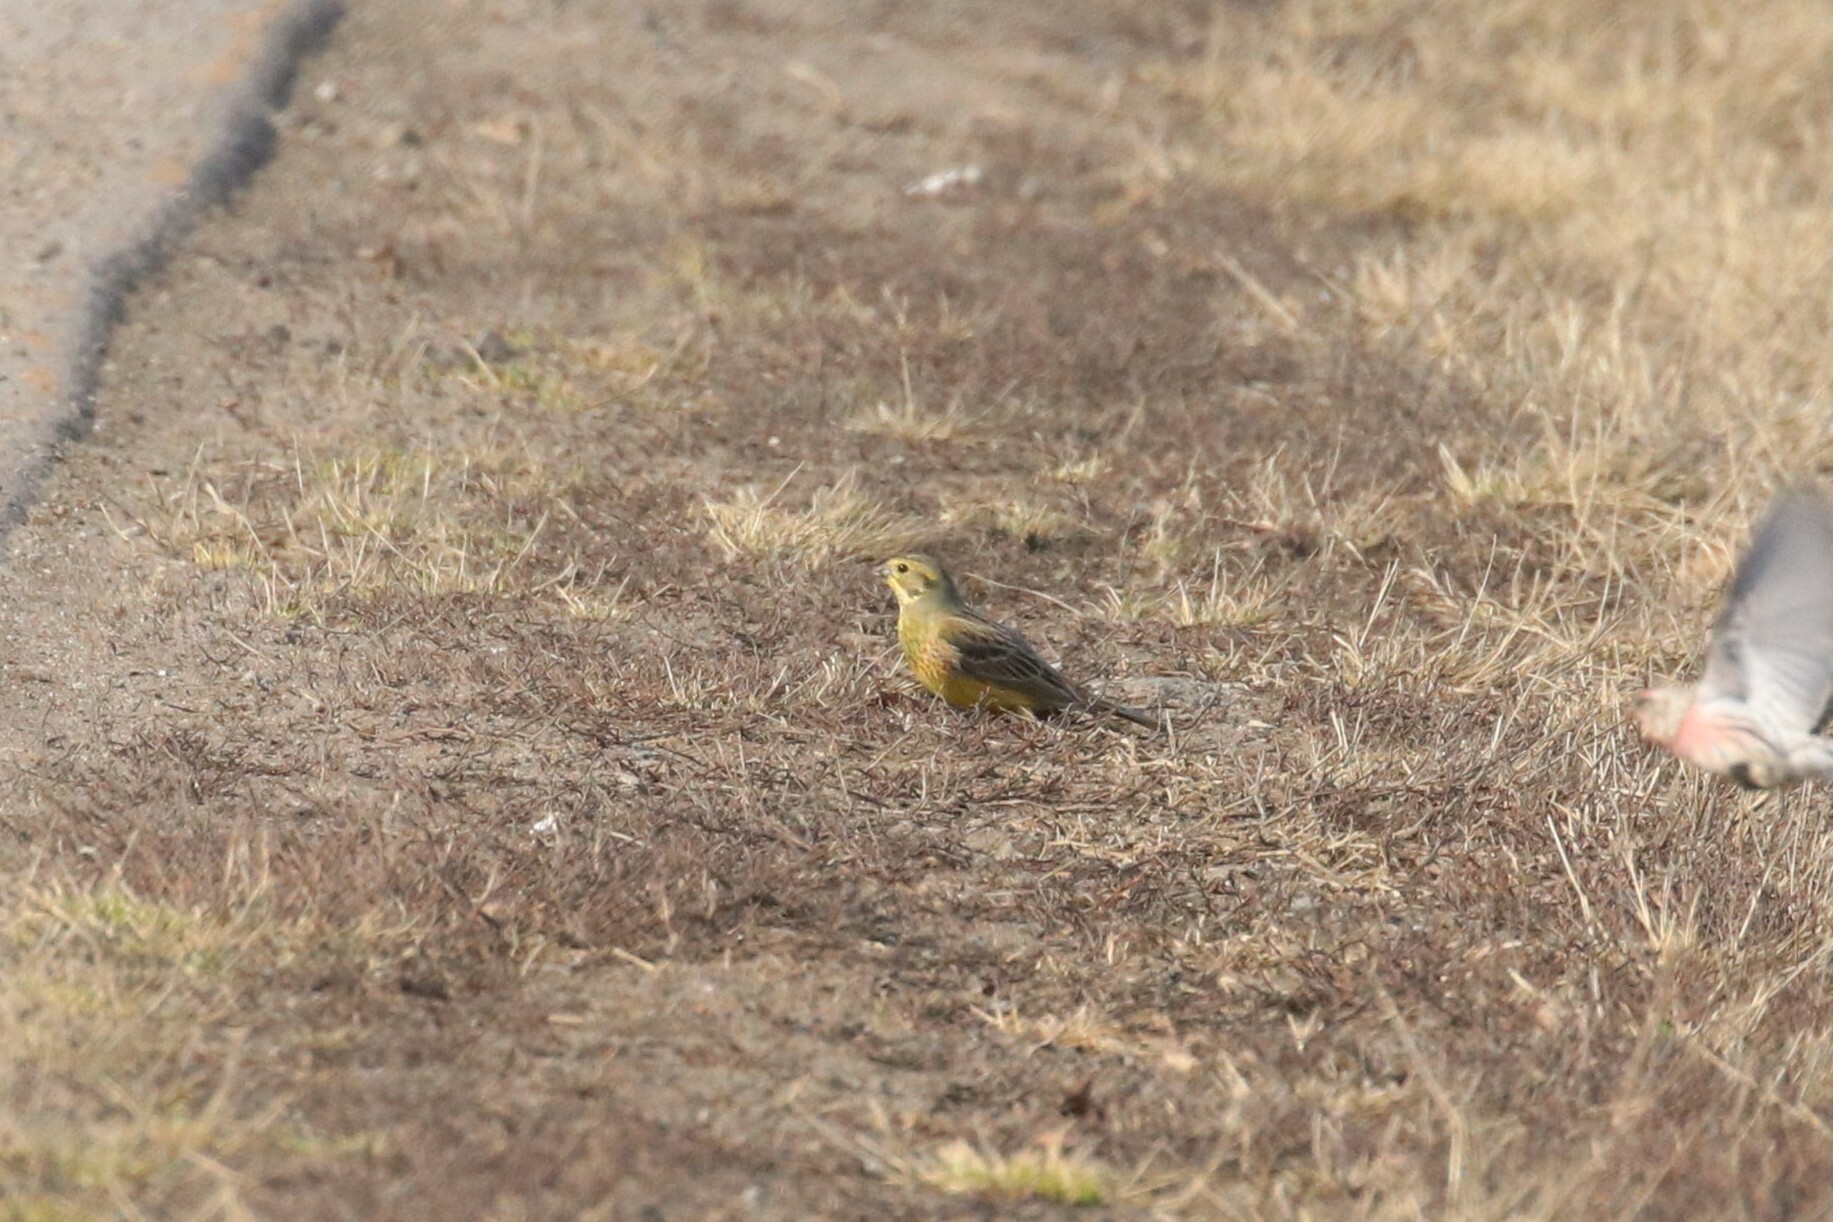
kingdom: Animalia
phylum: Chordata
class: Aves
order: Passeriformes
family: Emberizidae
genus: Emberiza
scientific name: Emberiza citrinella
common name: Yellowhammer
